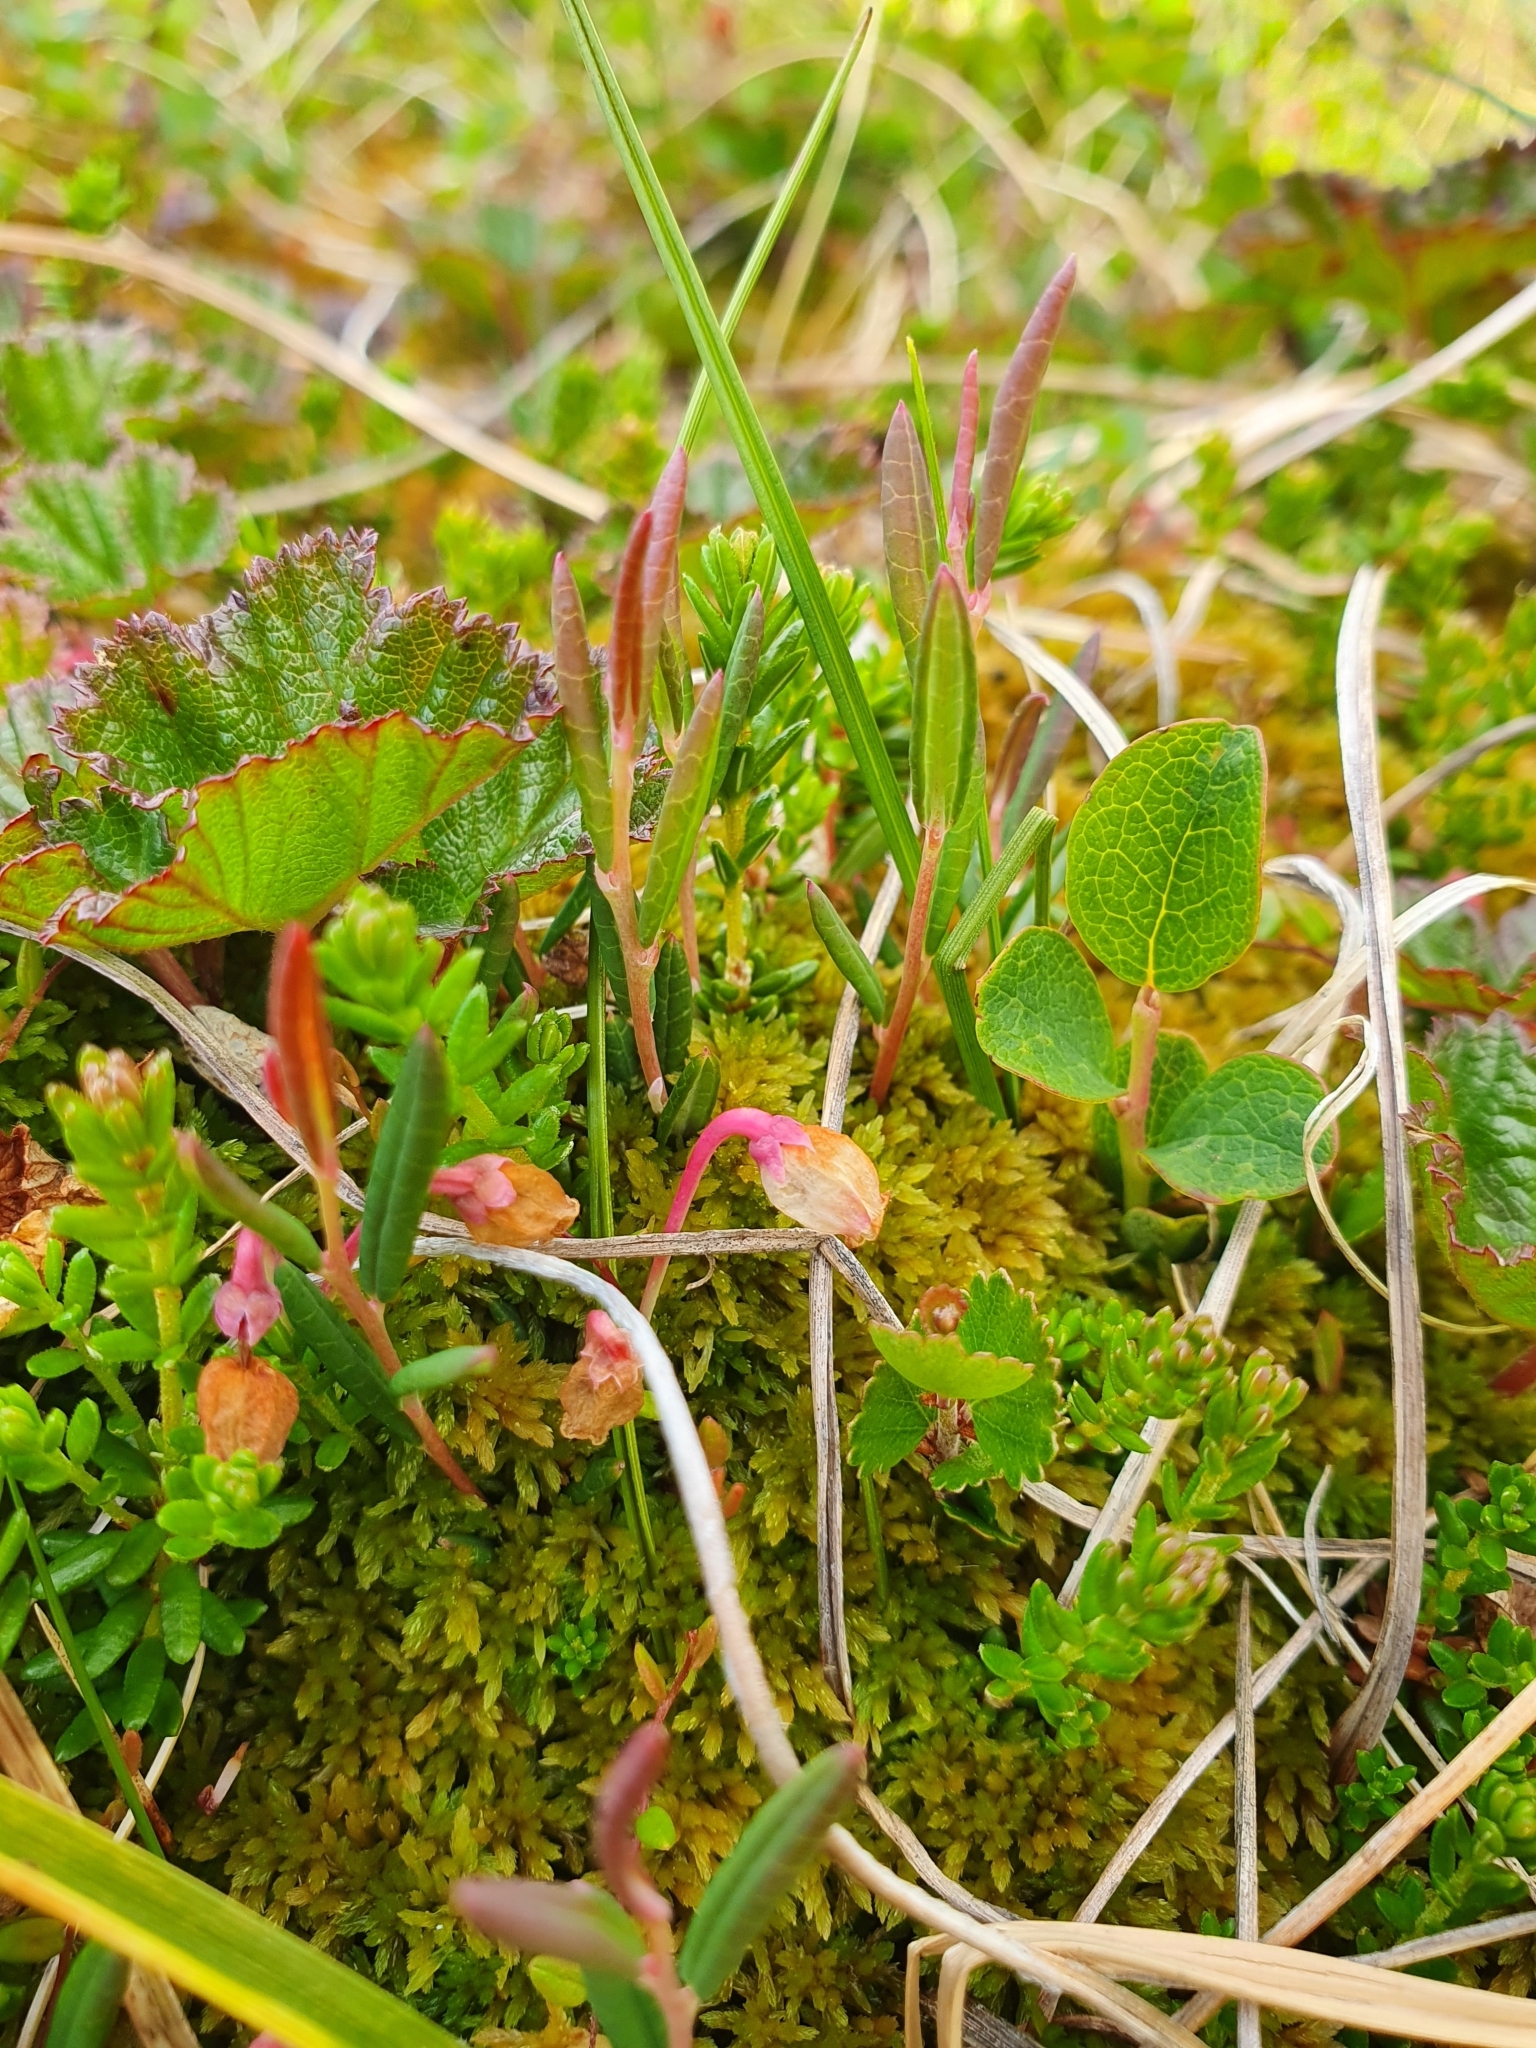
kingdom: Plantae
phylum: Tracheophyta
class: Magnoliopsida
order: Ericales
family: Ericaceae
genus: Andromeda
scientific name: Andromeda polifolia
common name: Bog-rosemary
